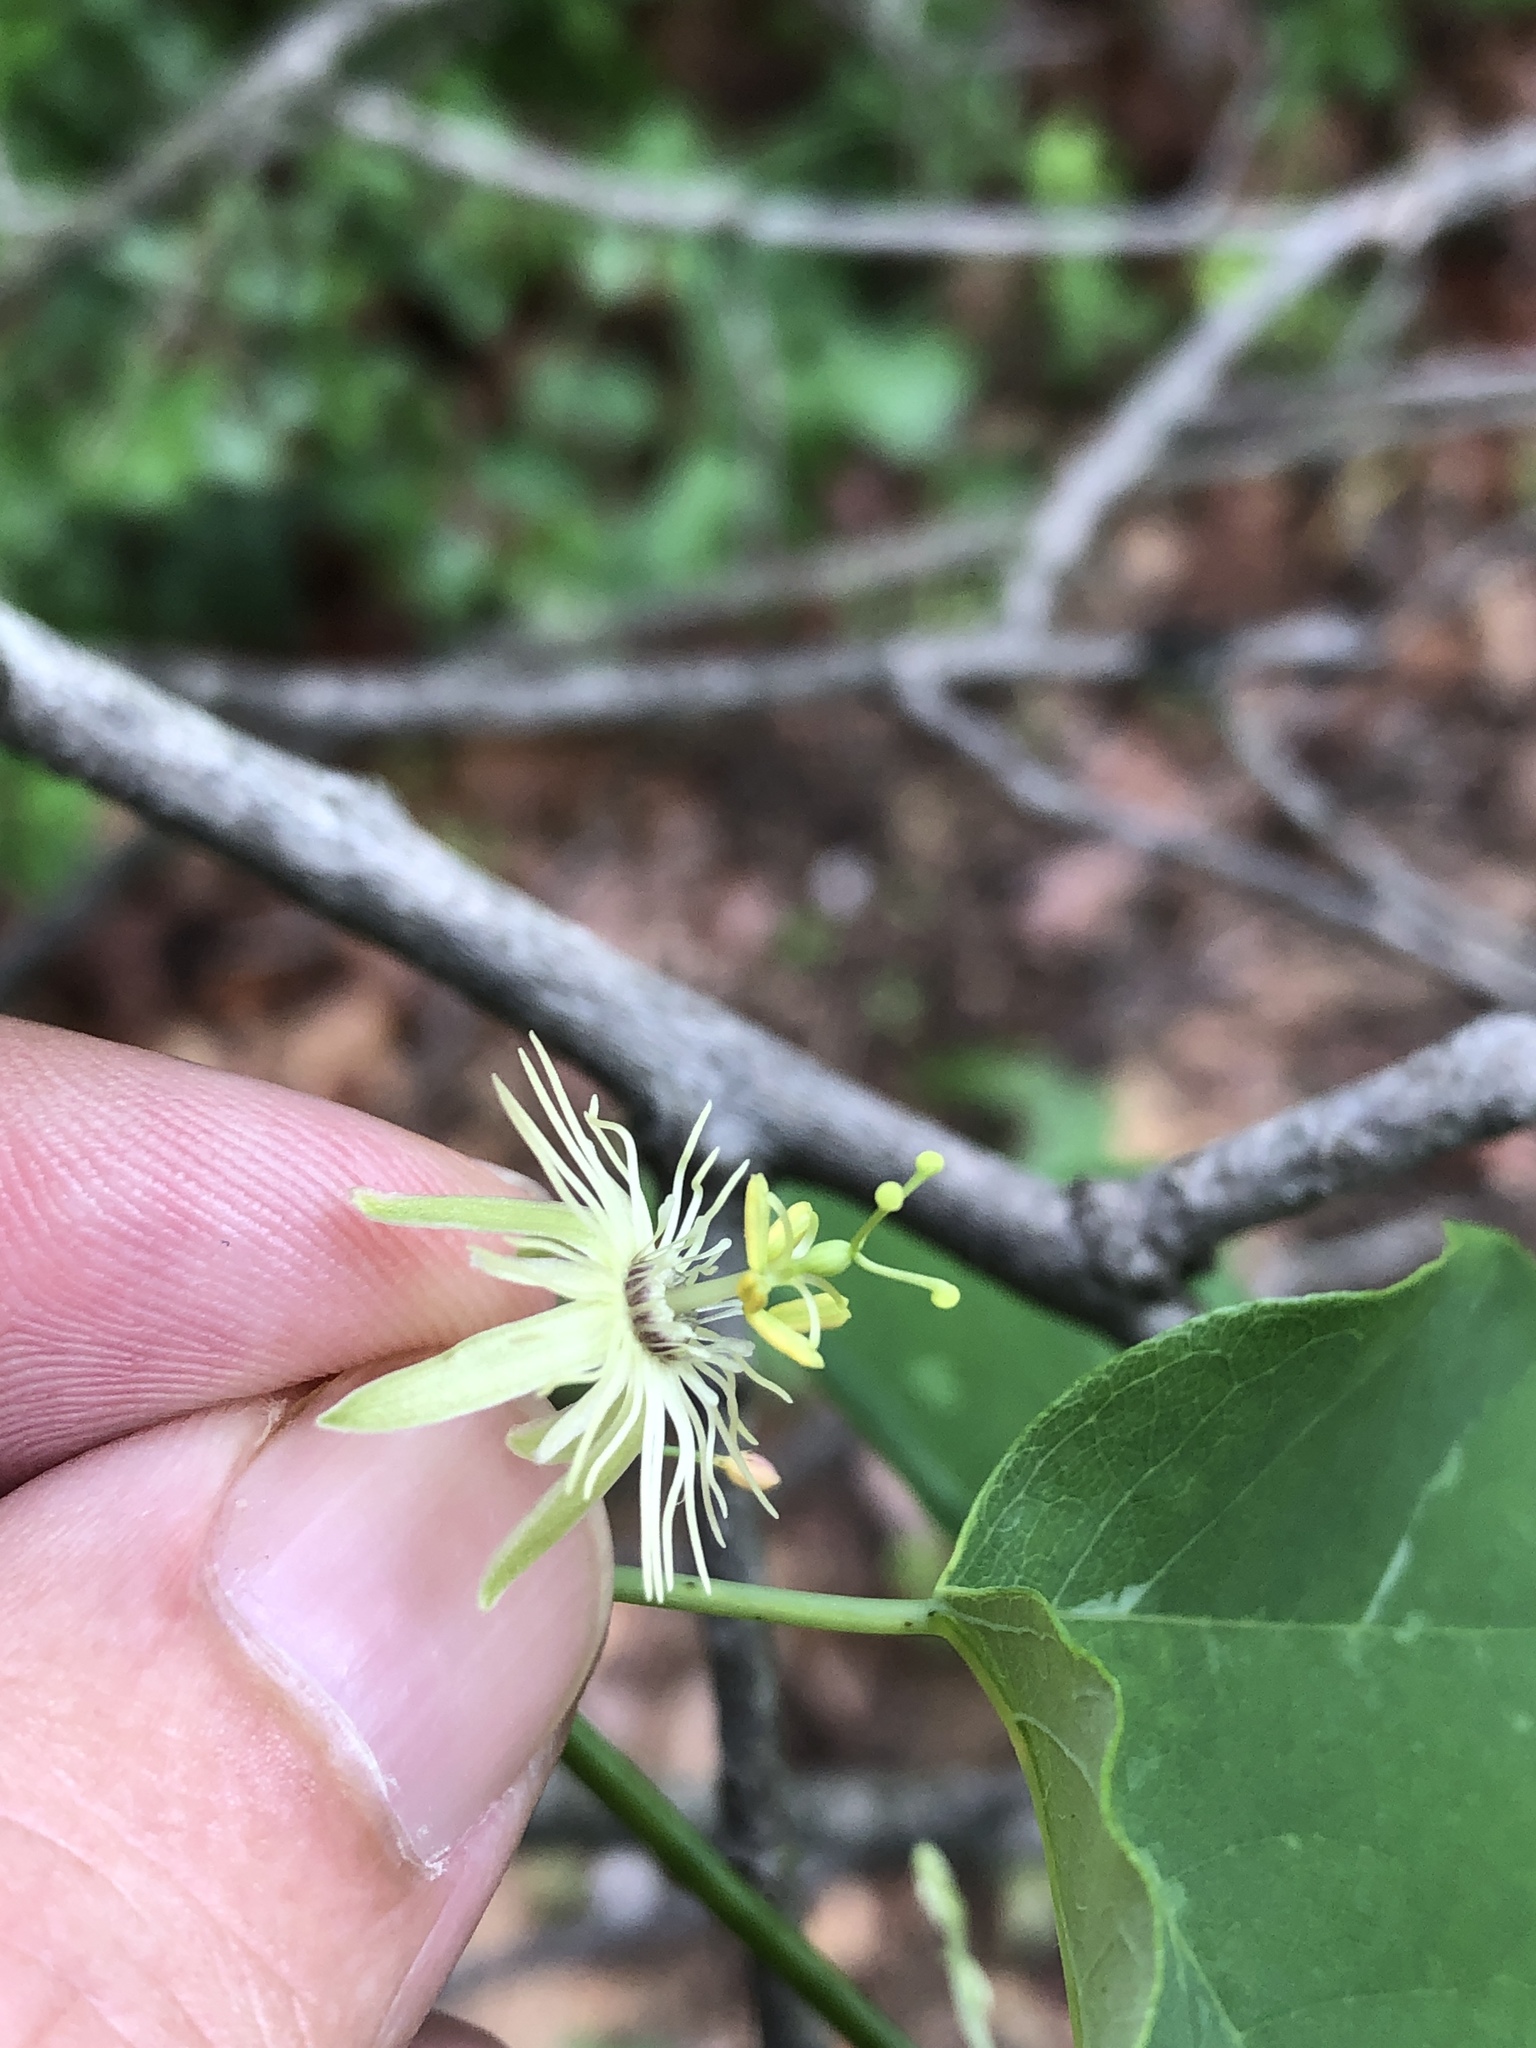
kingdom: Plantae
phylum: Tracheophyta
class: Magnoliopsida
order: Malpighiales
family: Passifloraceae
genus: Passiflora
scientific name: Passiflora lutea
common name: Yellow passionflower
